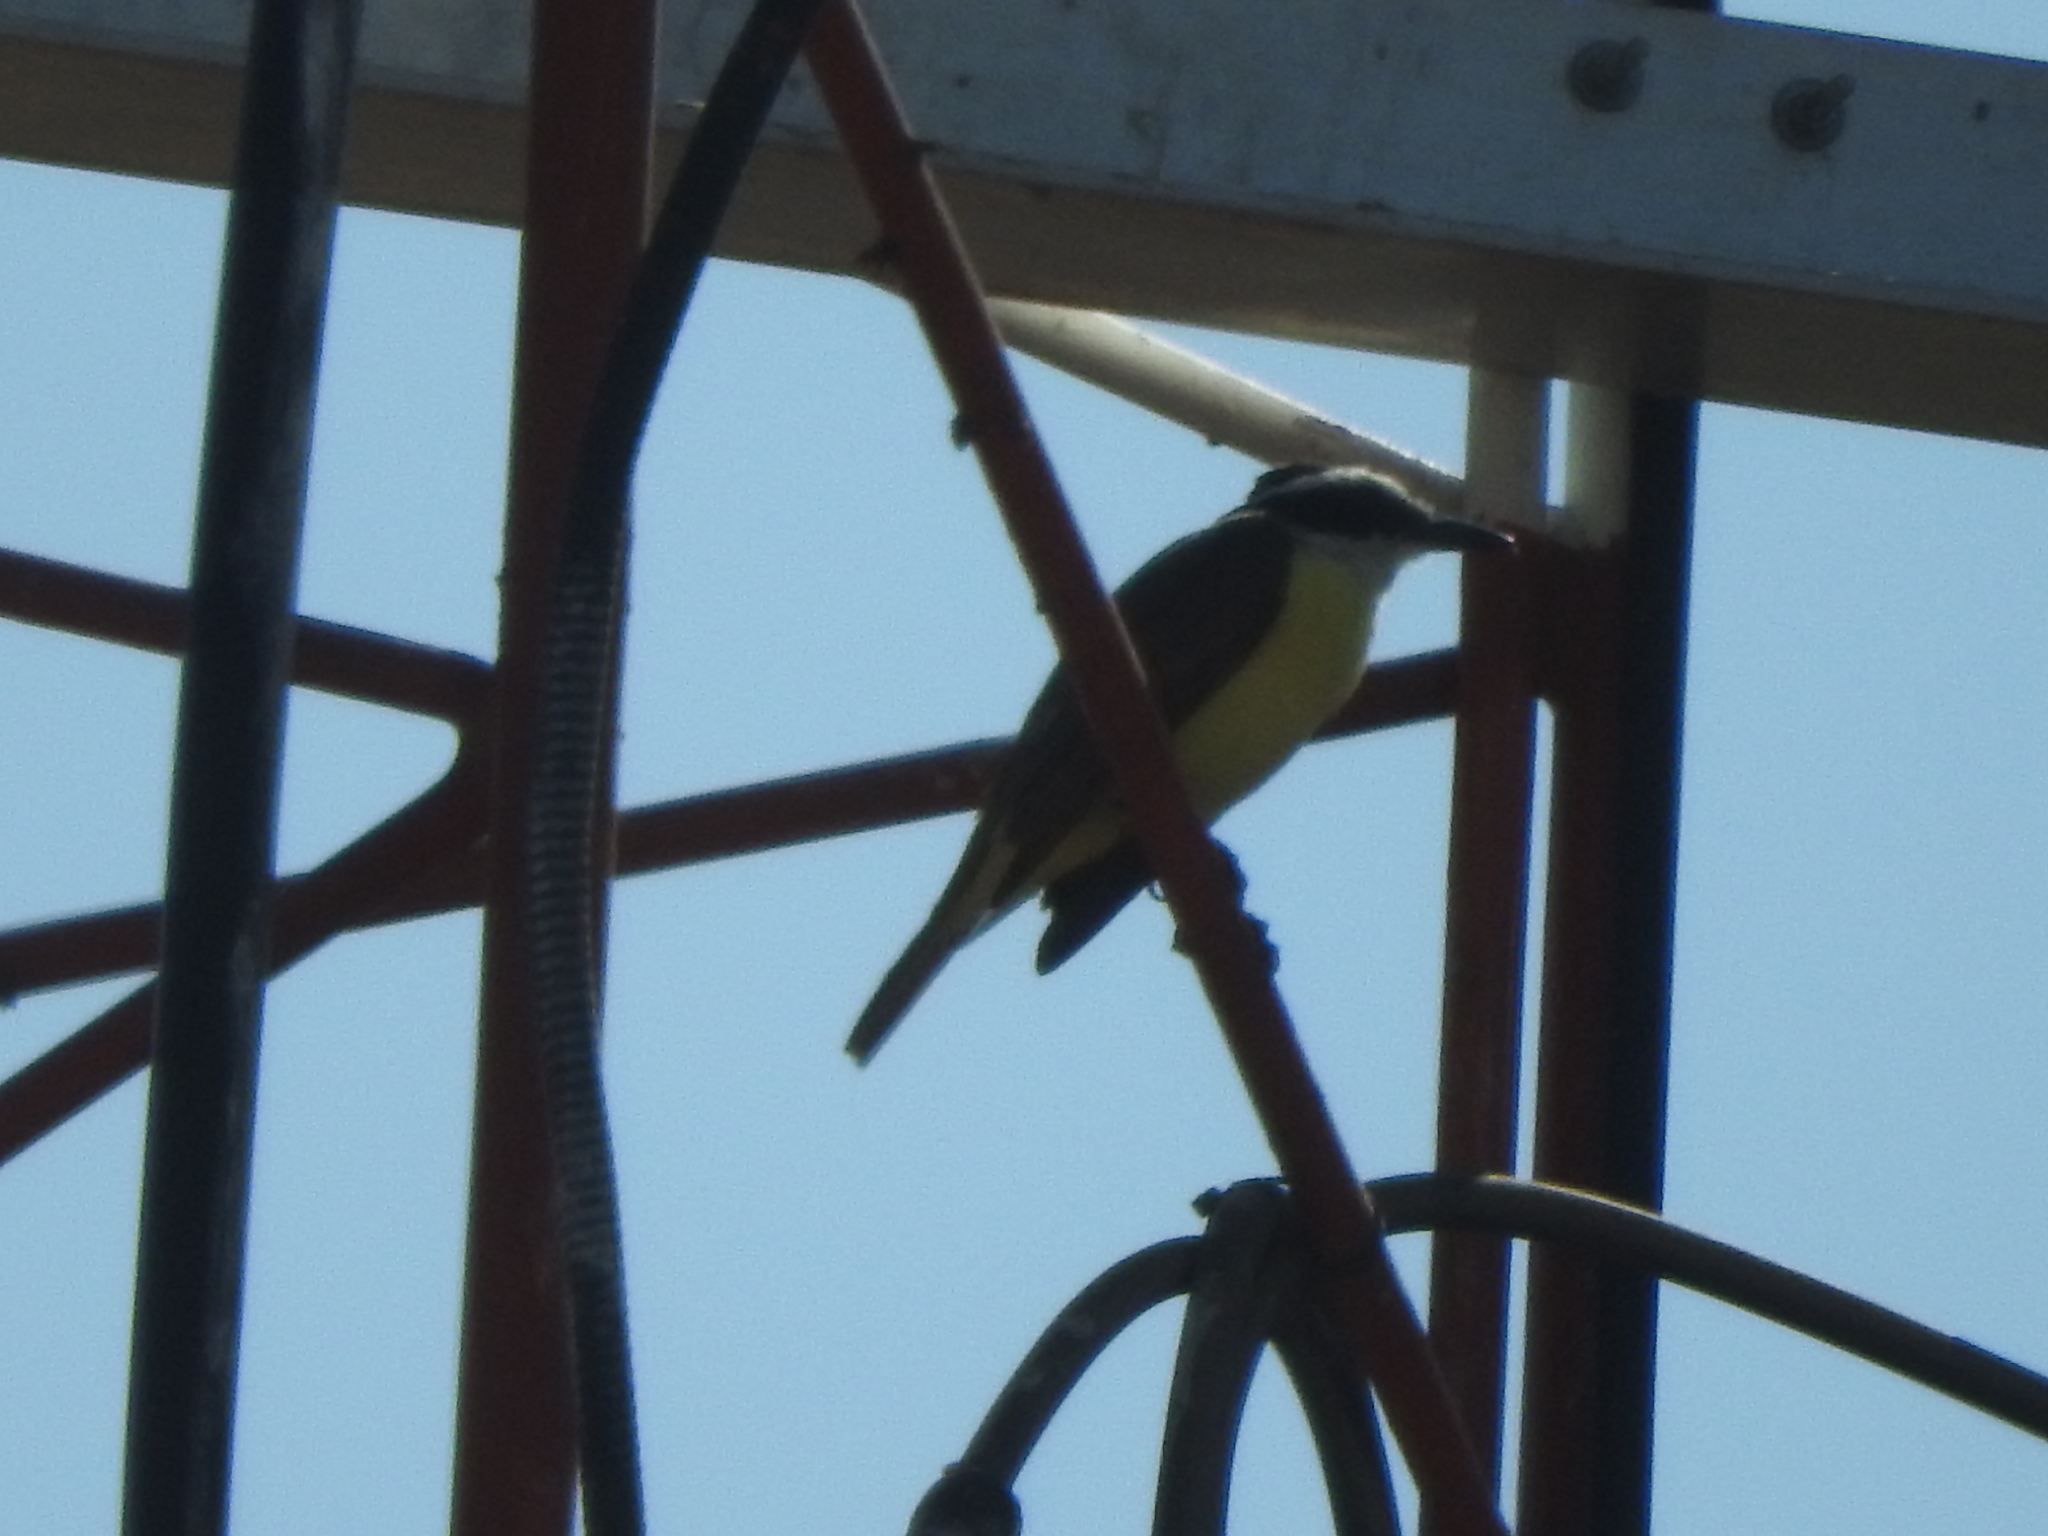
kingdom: Animalia
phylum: Chordata
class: Aves
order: Passeriformes
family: Tyrannidae
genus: Pitangus
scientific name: Pitangus sulphuratus
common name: Great kiskadee
